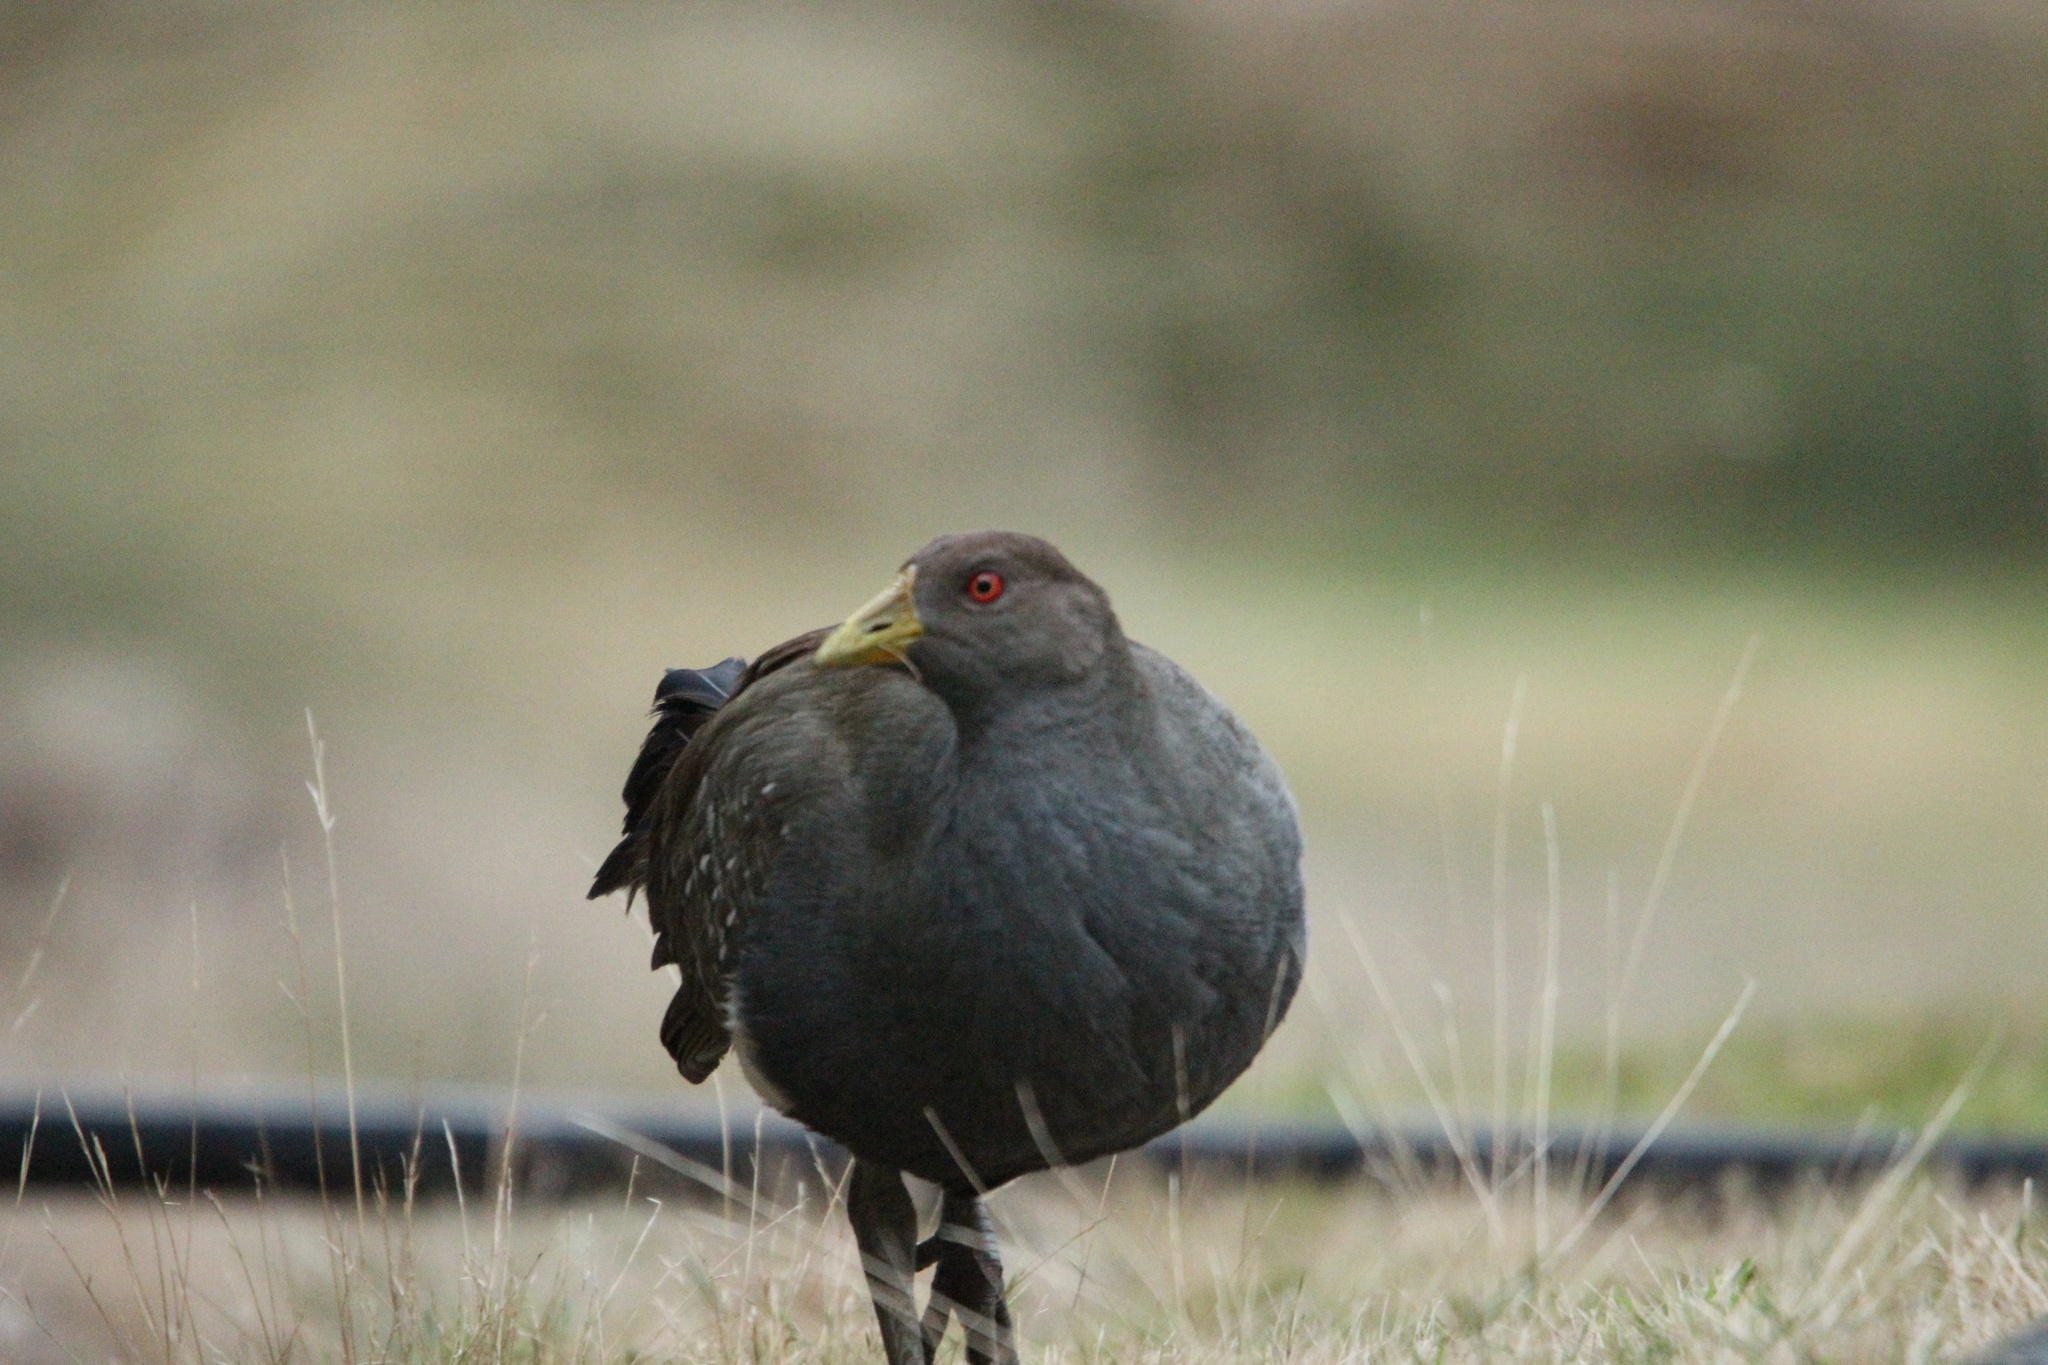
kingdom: Animalia
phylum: Chordata
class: Aves
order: Gruiformes
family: Rallidae
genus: Gallinula
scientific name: Gallinula mortierii
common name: Tasmanian nativehen
